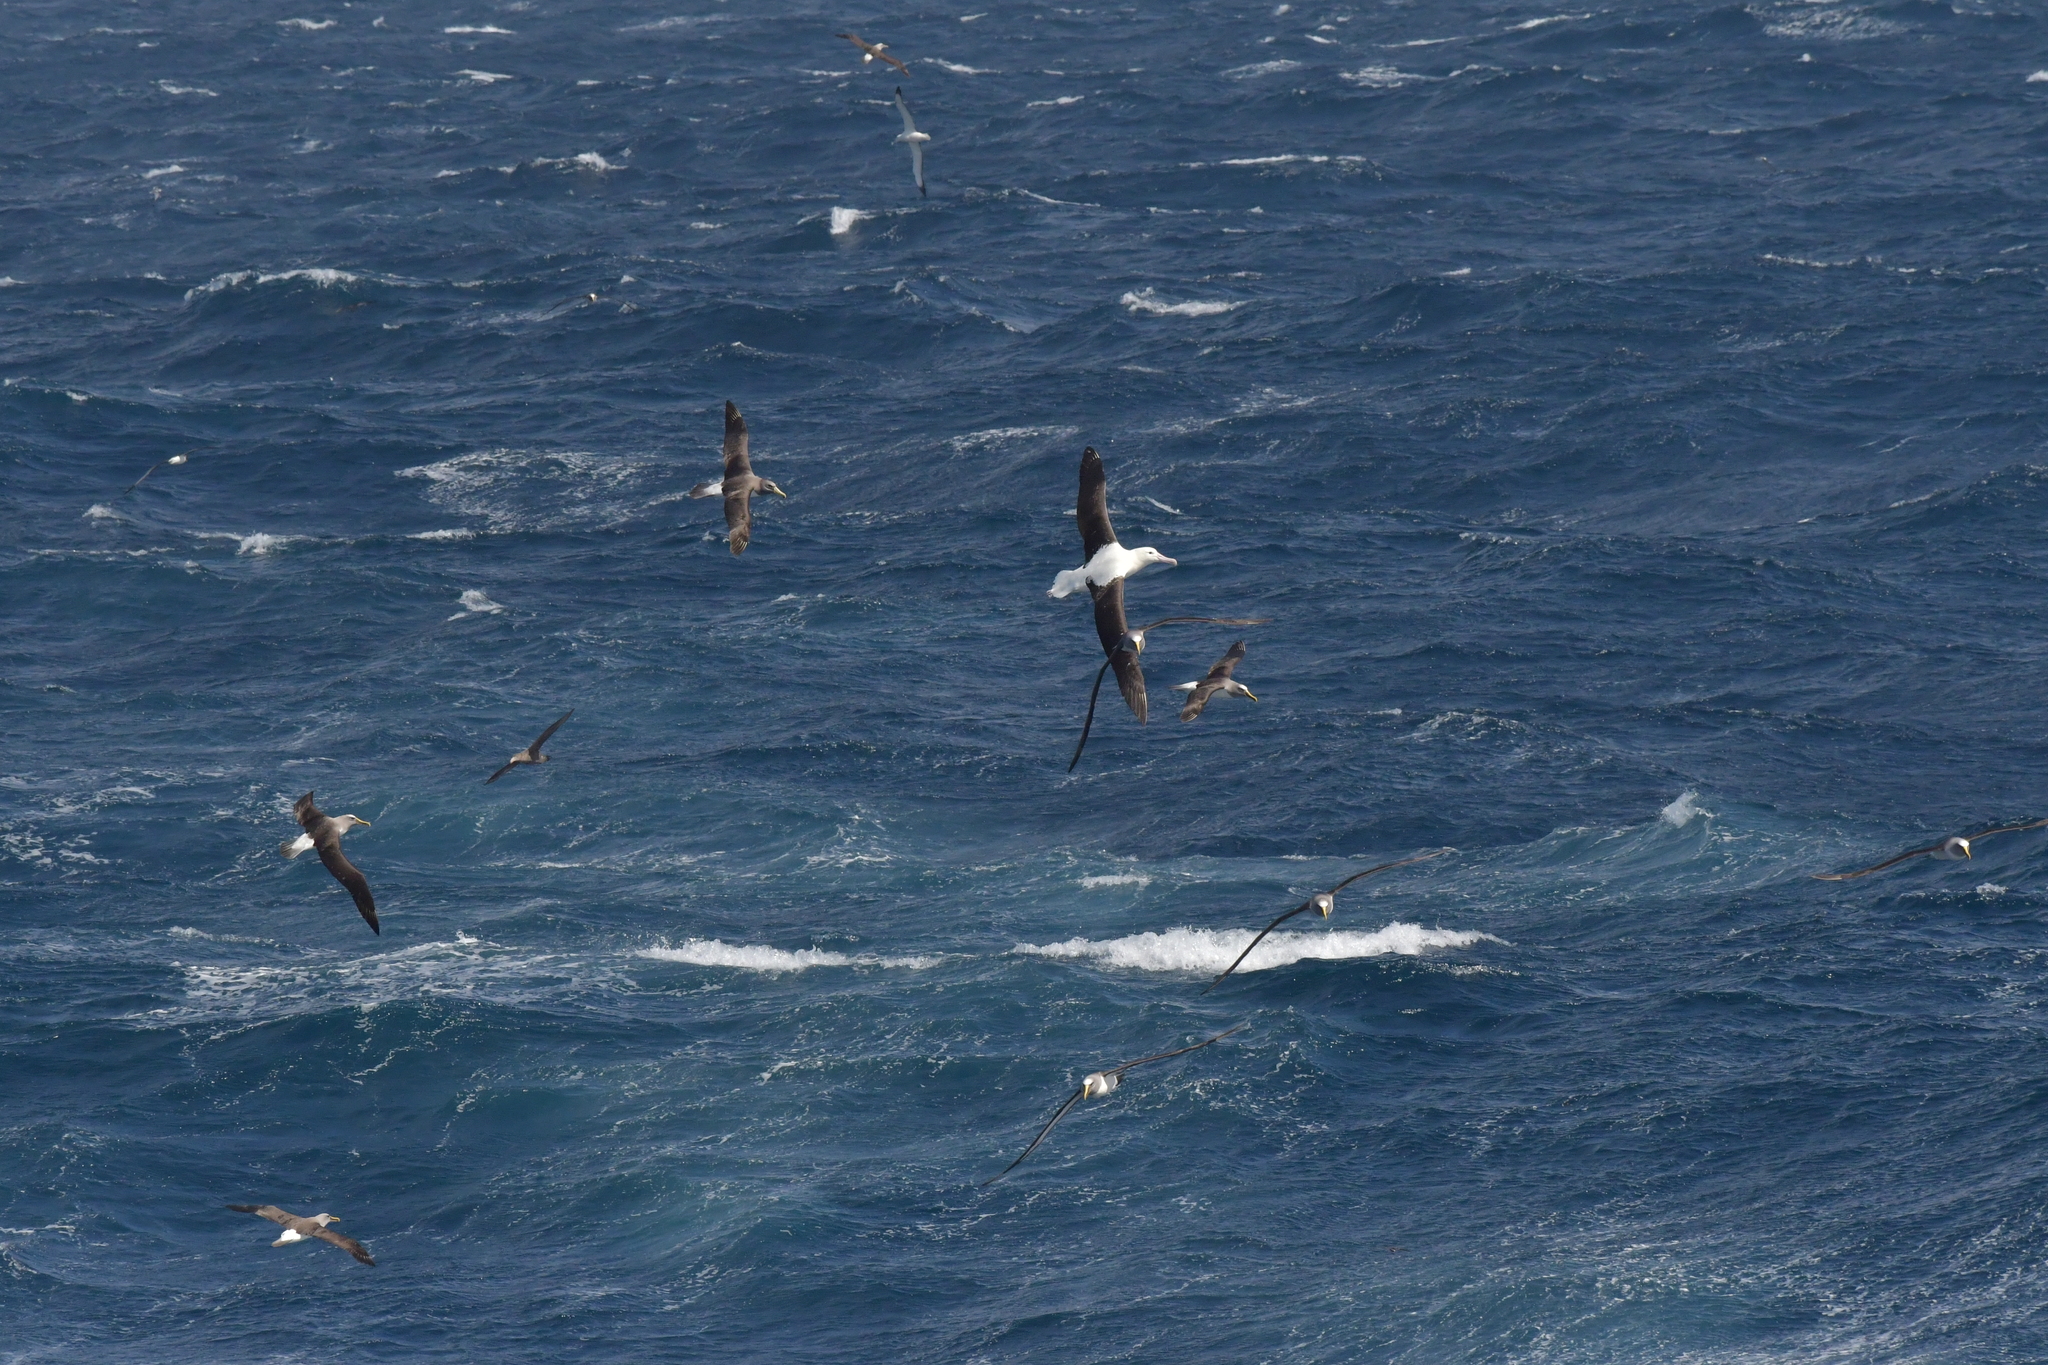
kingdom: Animalia
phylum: Chordata
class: Aves
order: Procellariiformes
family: Diomedeidae
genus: Diomedea
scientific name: Diomedea sanfordi
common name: Northern royal albatross
